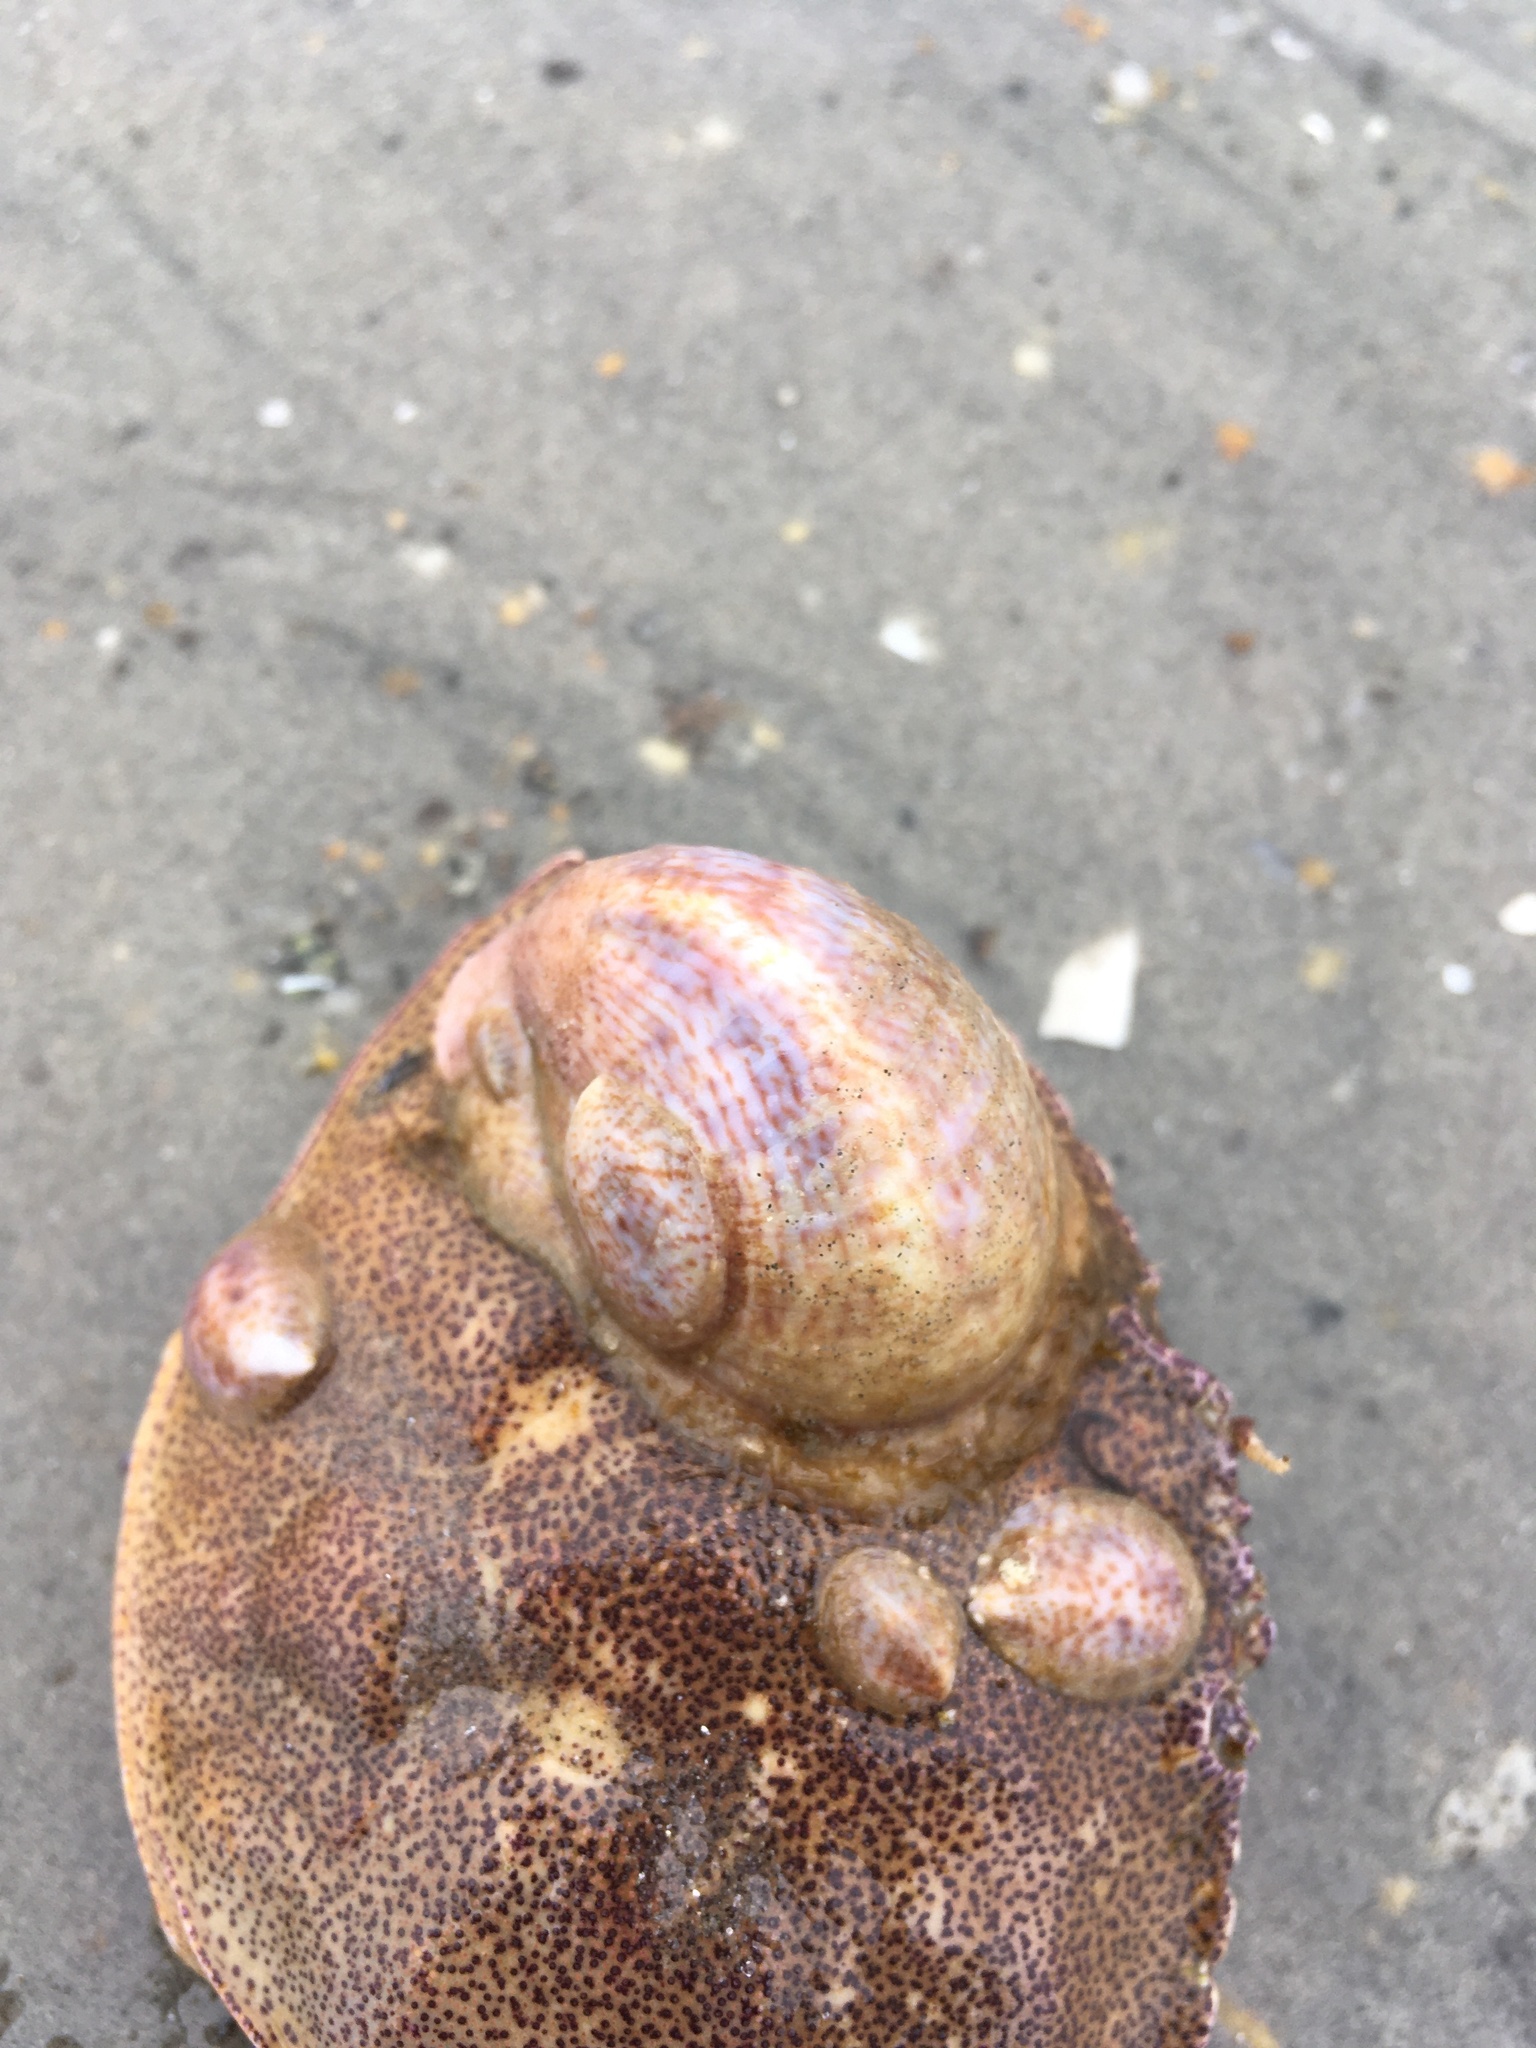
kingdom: Animalia
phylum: Mollusca
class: Gastropoda
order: Littorinimorpha
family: Calyptraeidae
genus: Crepidula
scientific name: Crepidula fornicata
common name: Slipper limpet
